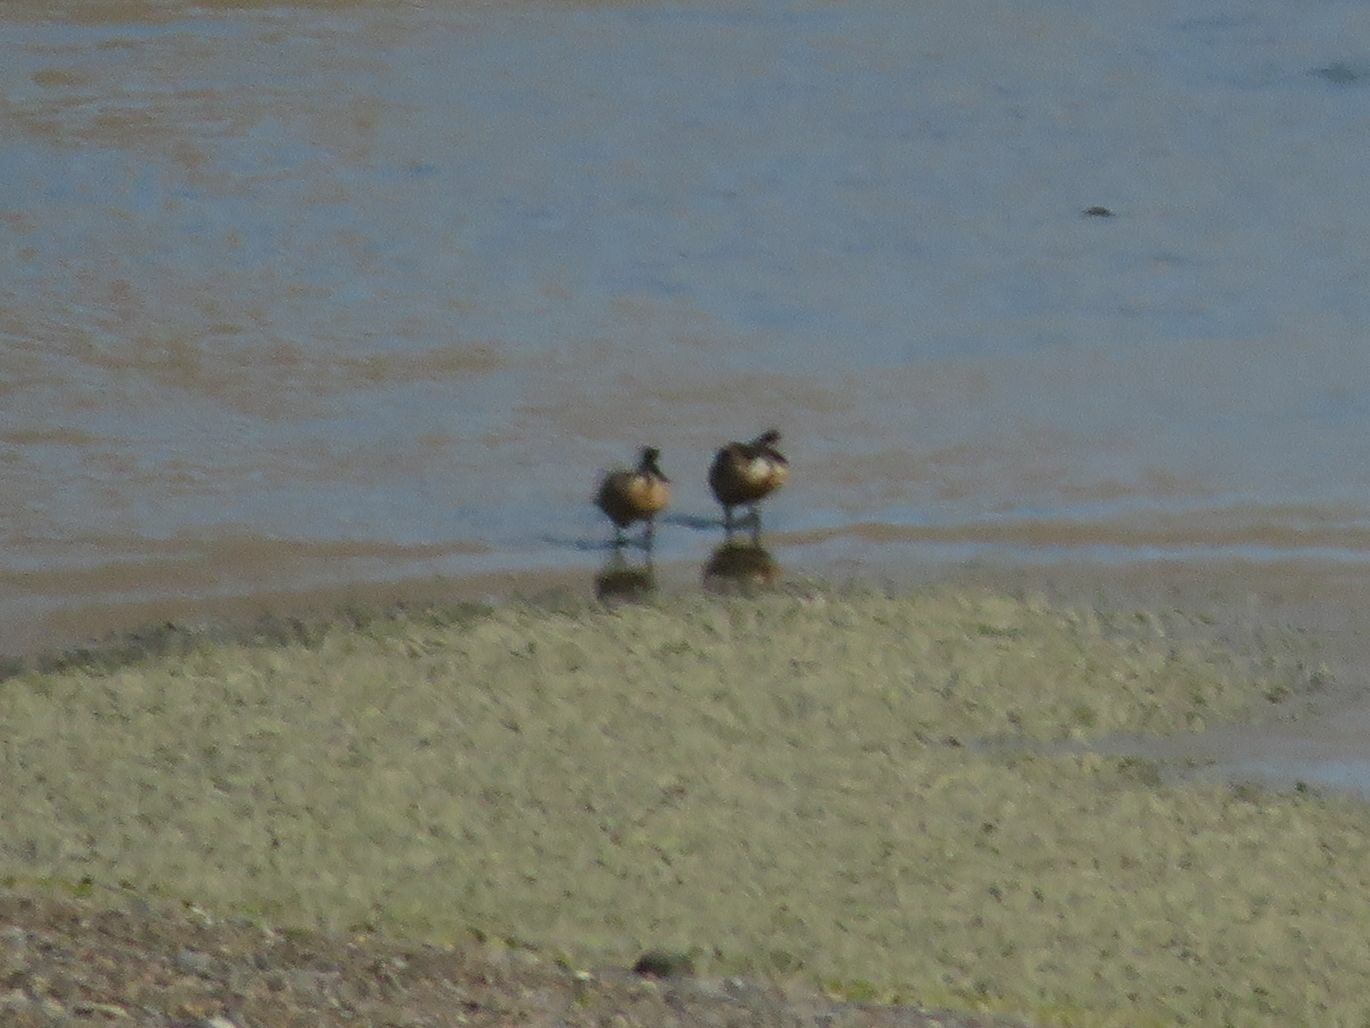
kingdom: Animalia
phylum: Chordata
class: Aves
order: Anseriformes
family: Anatidae
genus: Lophonetta
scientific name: Lophonetta specularioides
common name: Crested duck
